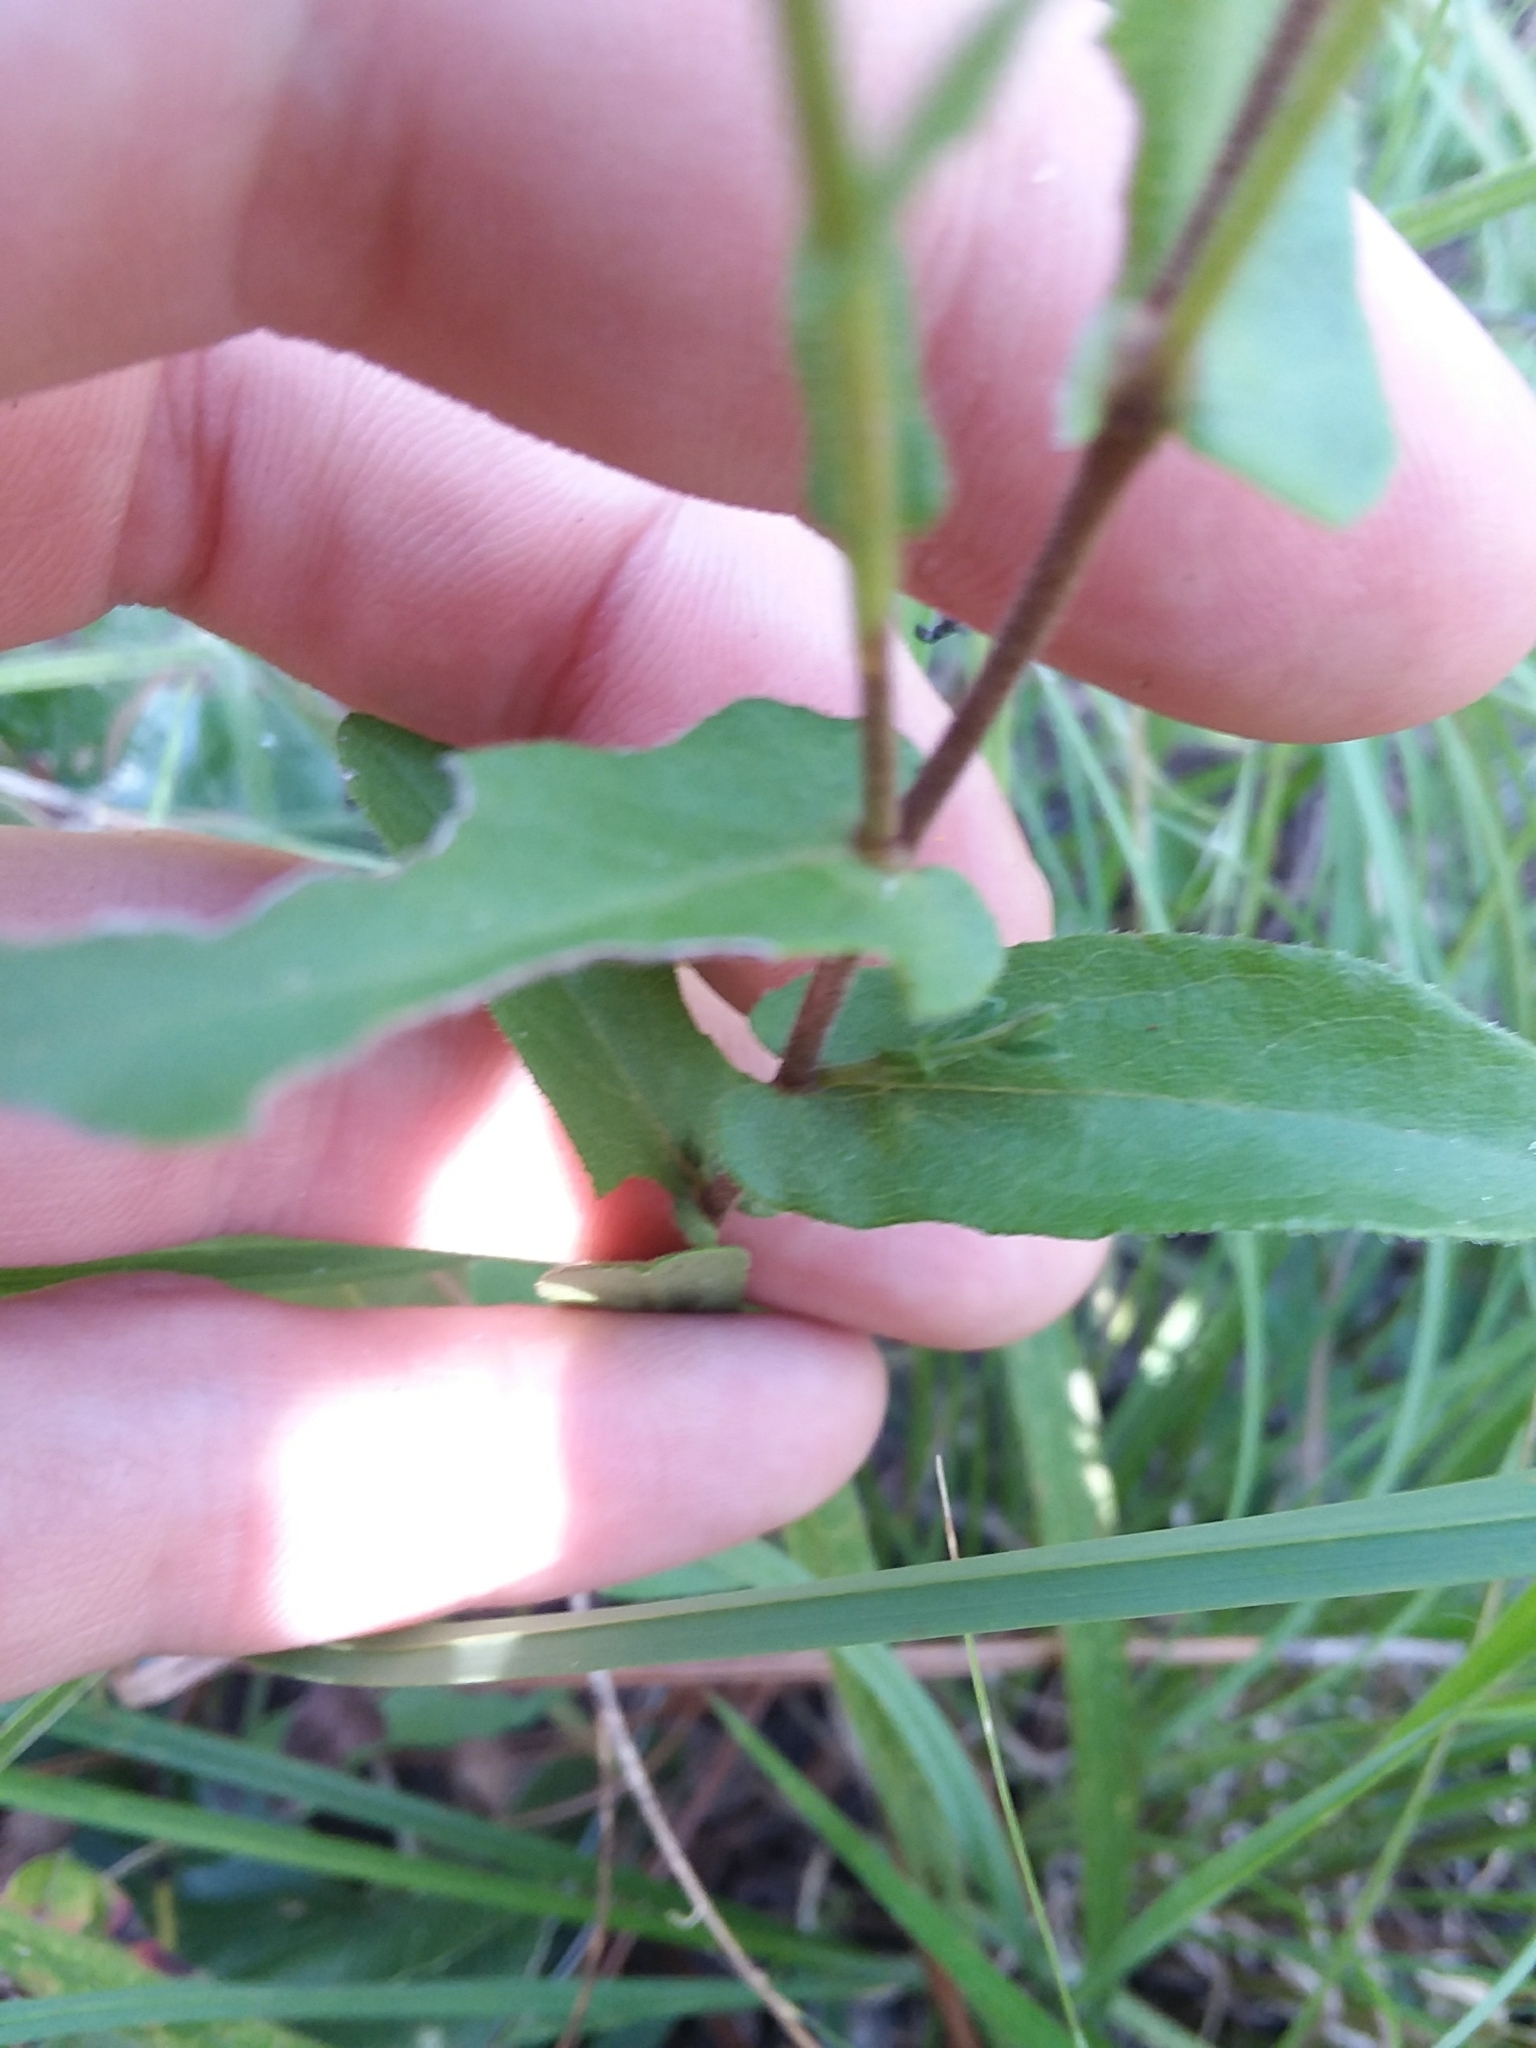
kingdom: Plantae
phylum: Tracheophyta
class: Magnoliopsida
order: Asterales
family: Asteraceae
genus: Symphyotrichum
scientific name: Symphyotrichum patens
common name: Late purple aster
